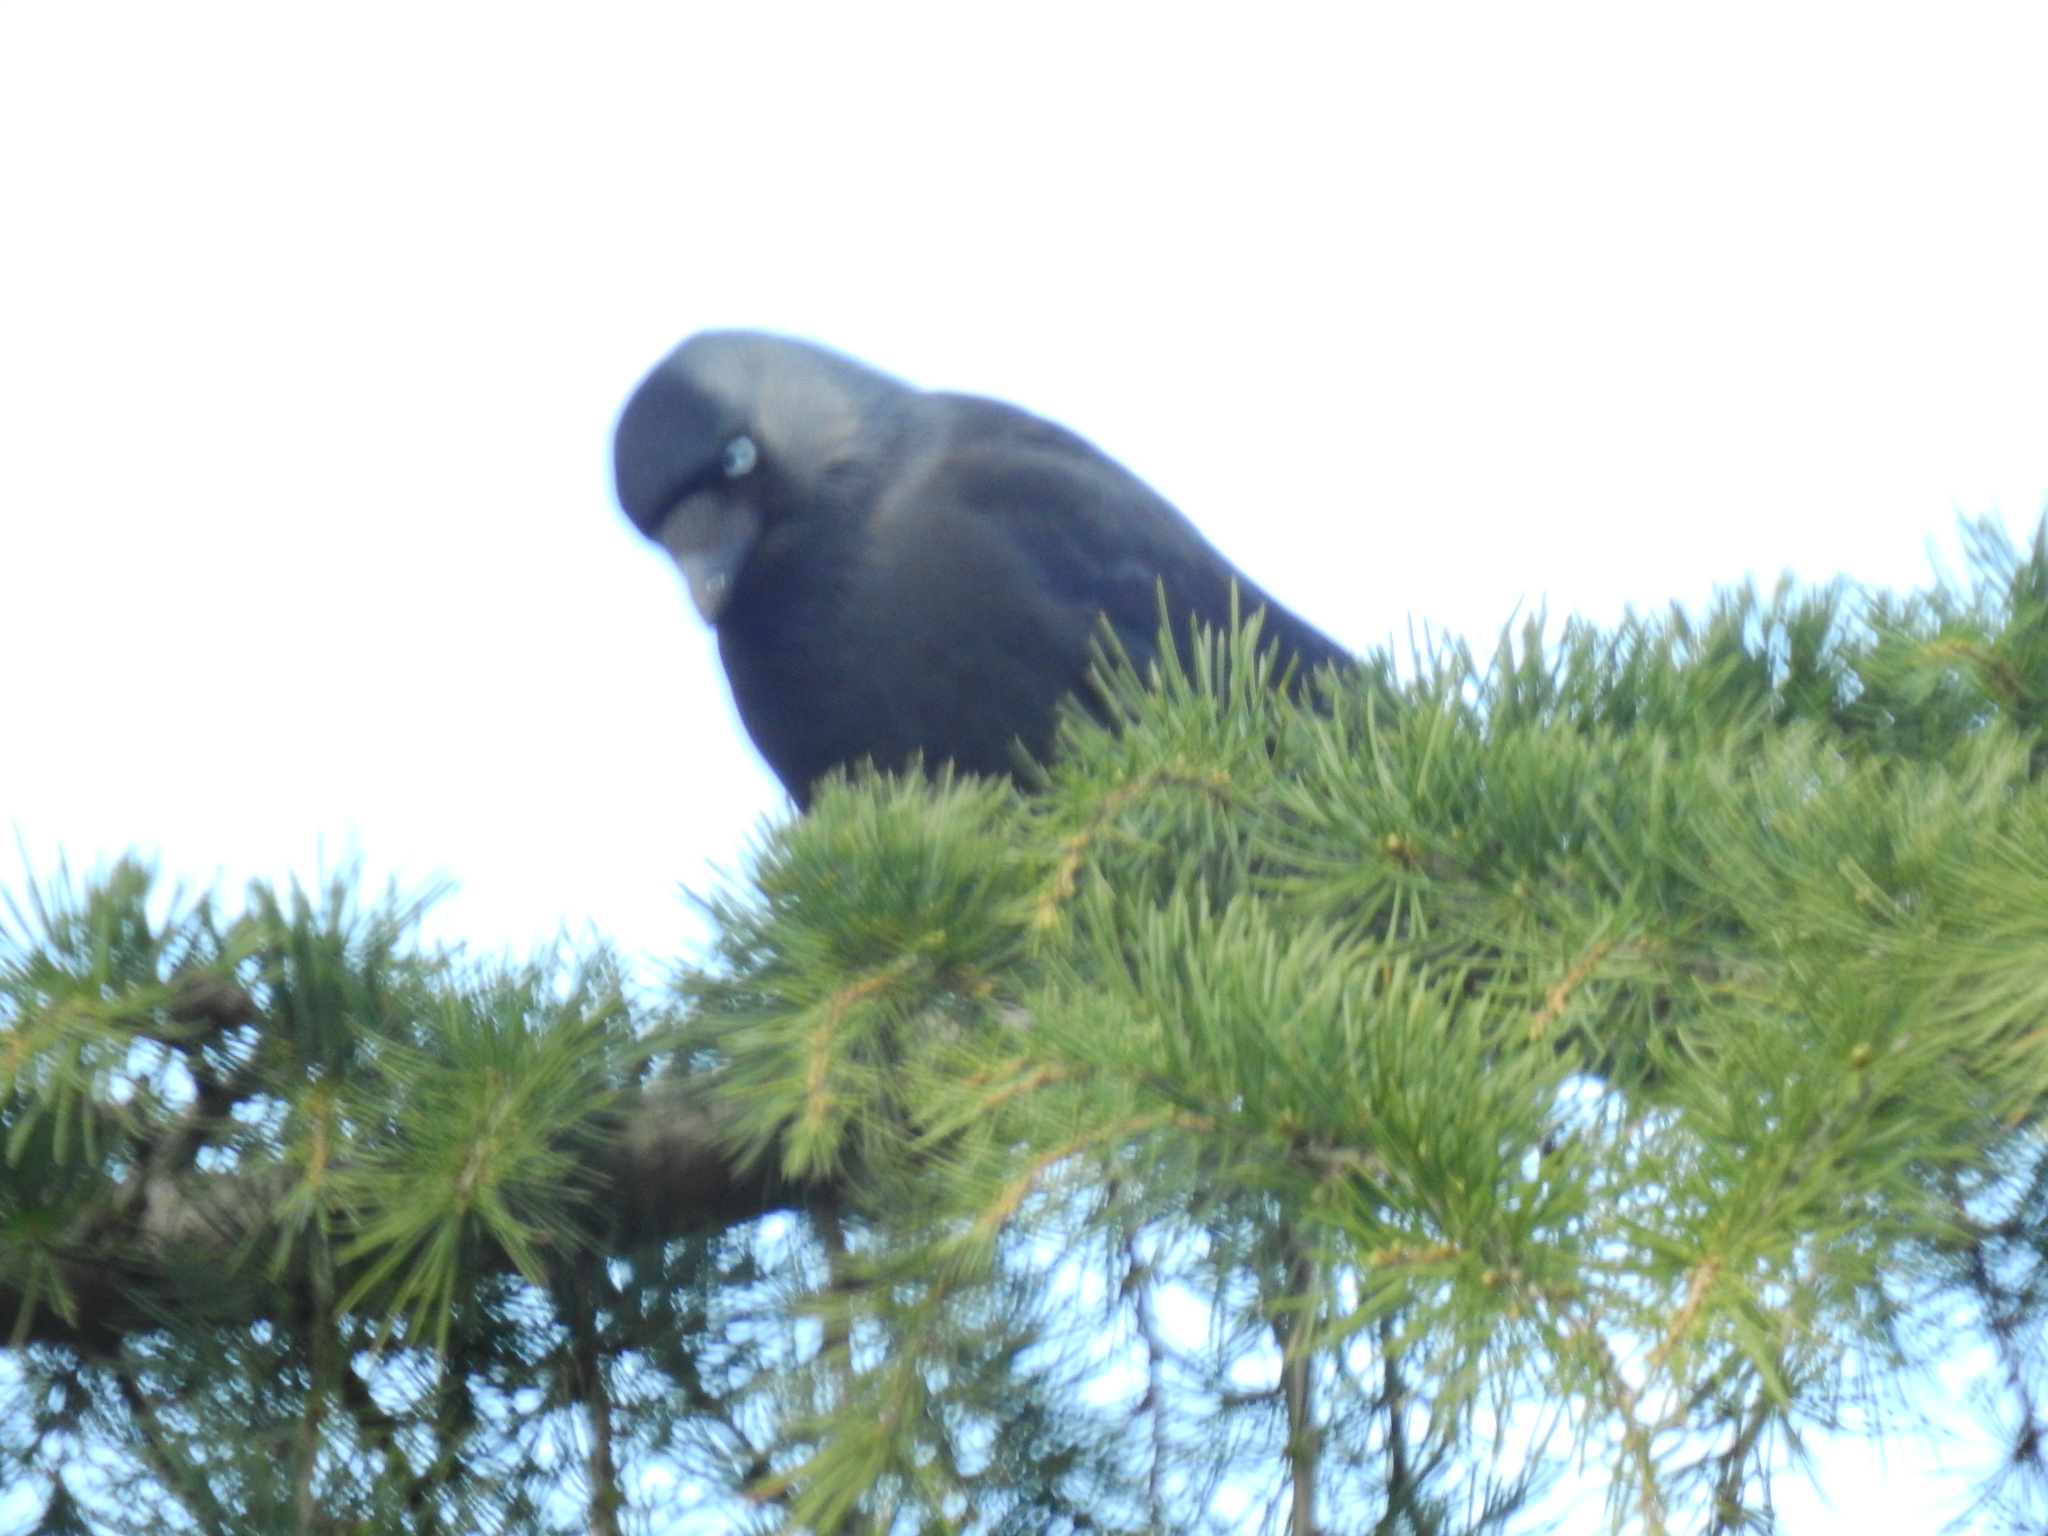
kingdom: Animalia
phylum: Chordata
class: Aves
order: Passeriformes
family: Corvidae
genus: Coloeus
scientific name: Coloeus monedula
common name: Western jackdaw
